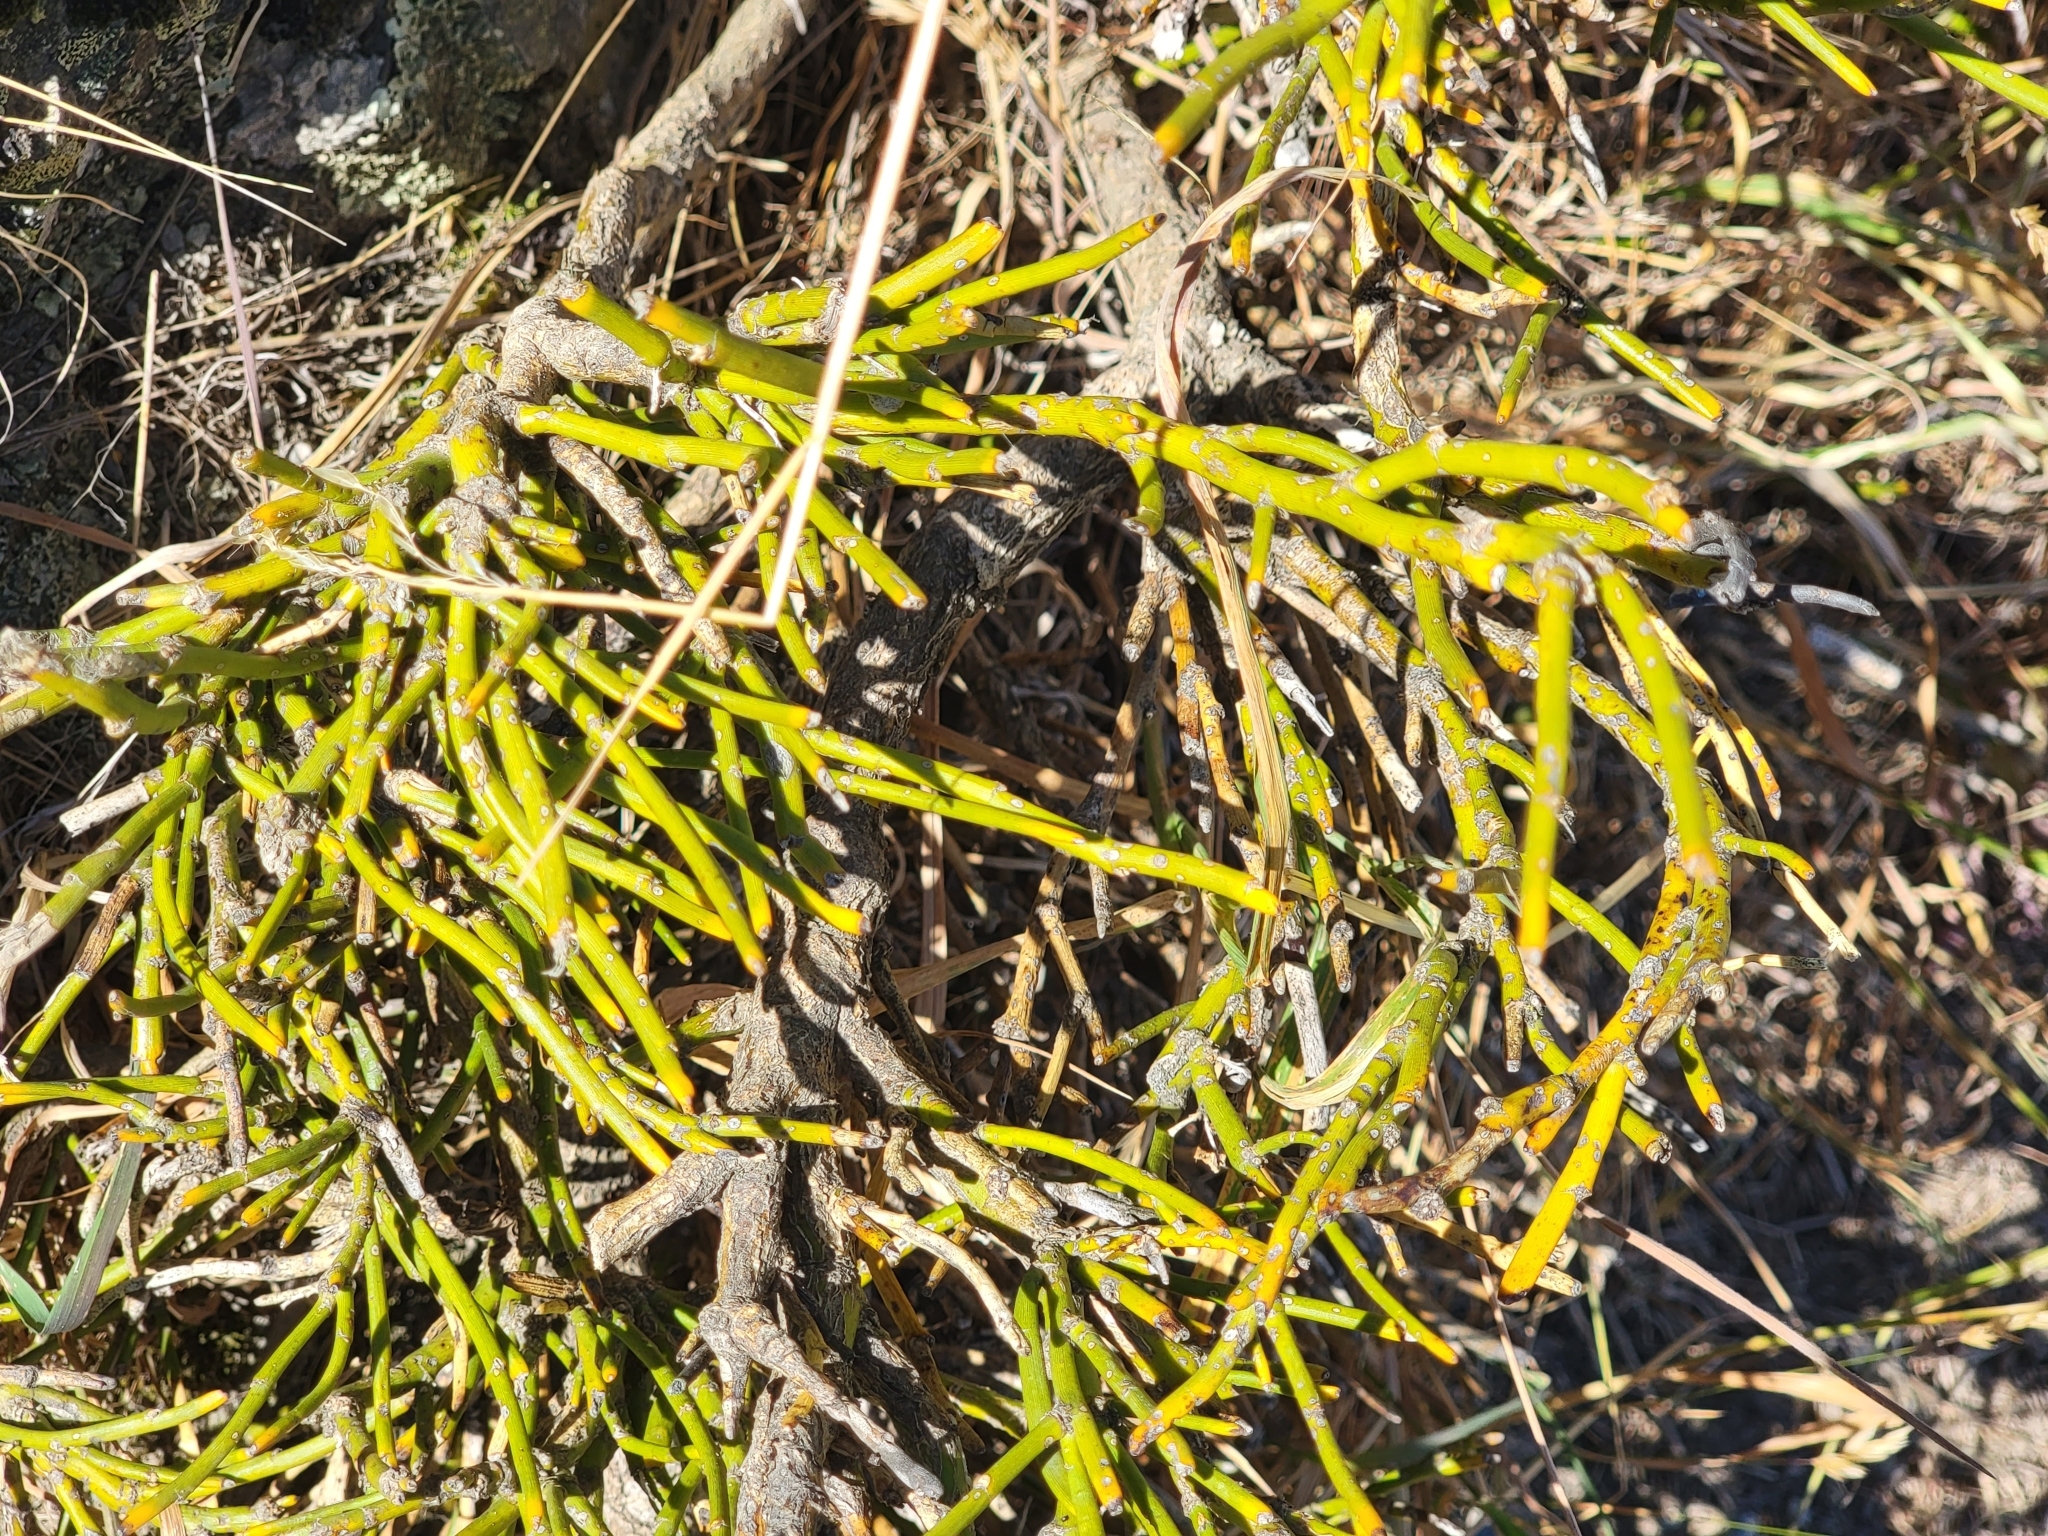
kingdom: Plantae
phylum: Tracheophyta
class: Magnoliopsida
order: Fabales
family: Fabaceae
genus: Carmichaelia
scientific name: Carmichaelia petriei
